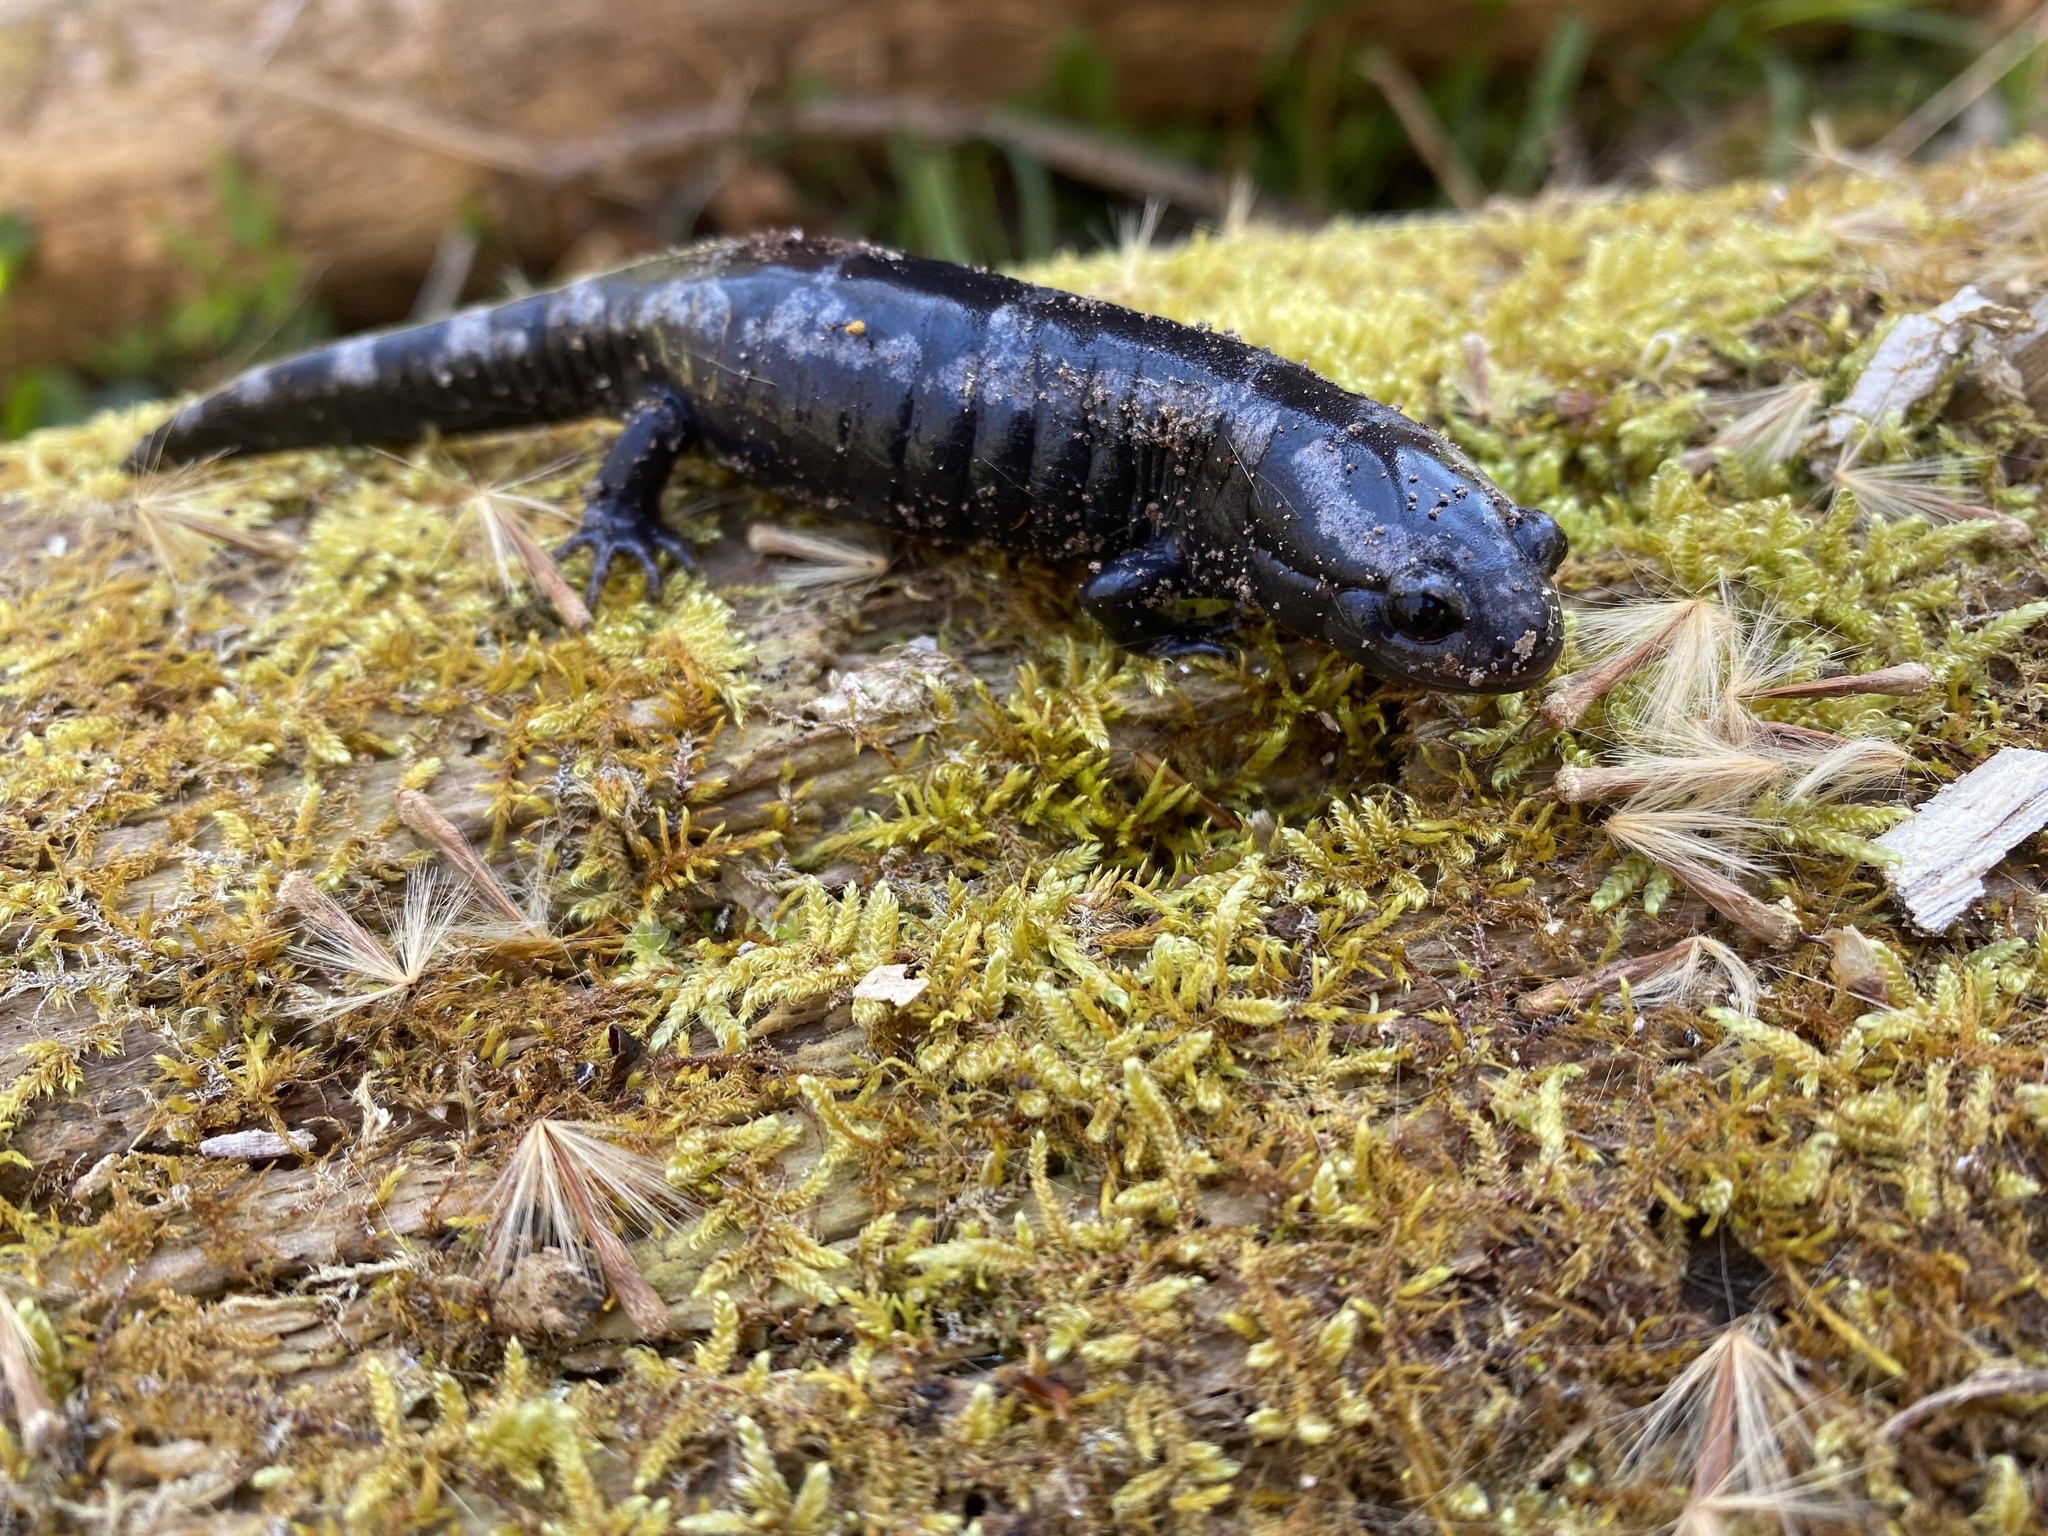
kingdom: Animalia
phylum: Chordata
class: Amphibia
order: Caudata
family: Ambystomatidae
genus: Ambystoma
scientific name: Ambystoma opacum
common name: Marbled salamander
